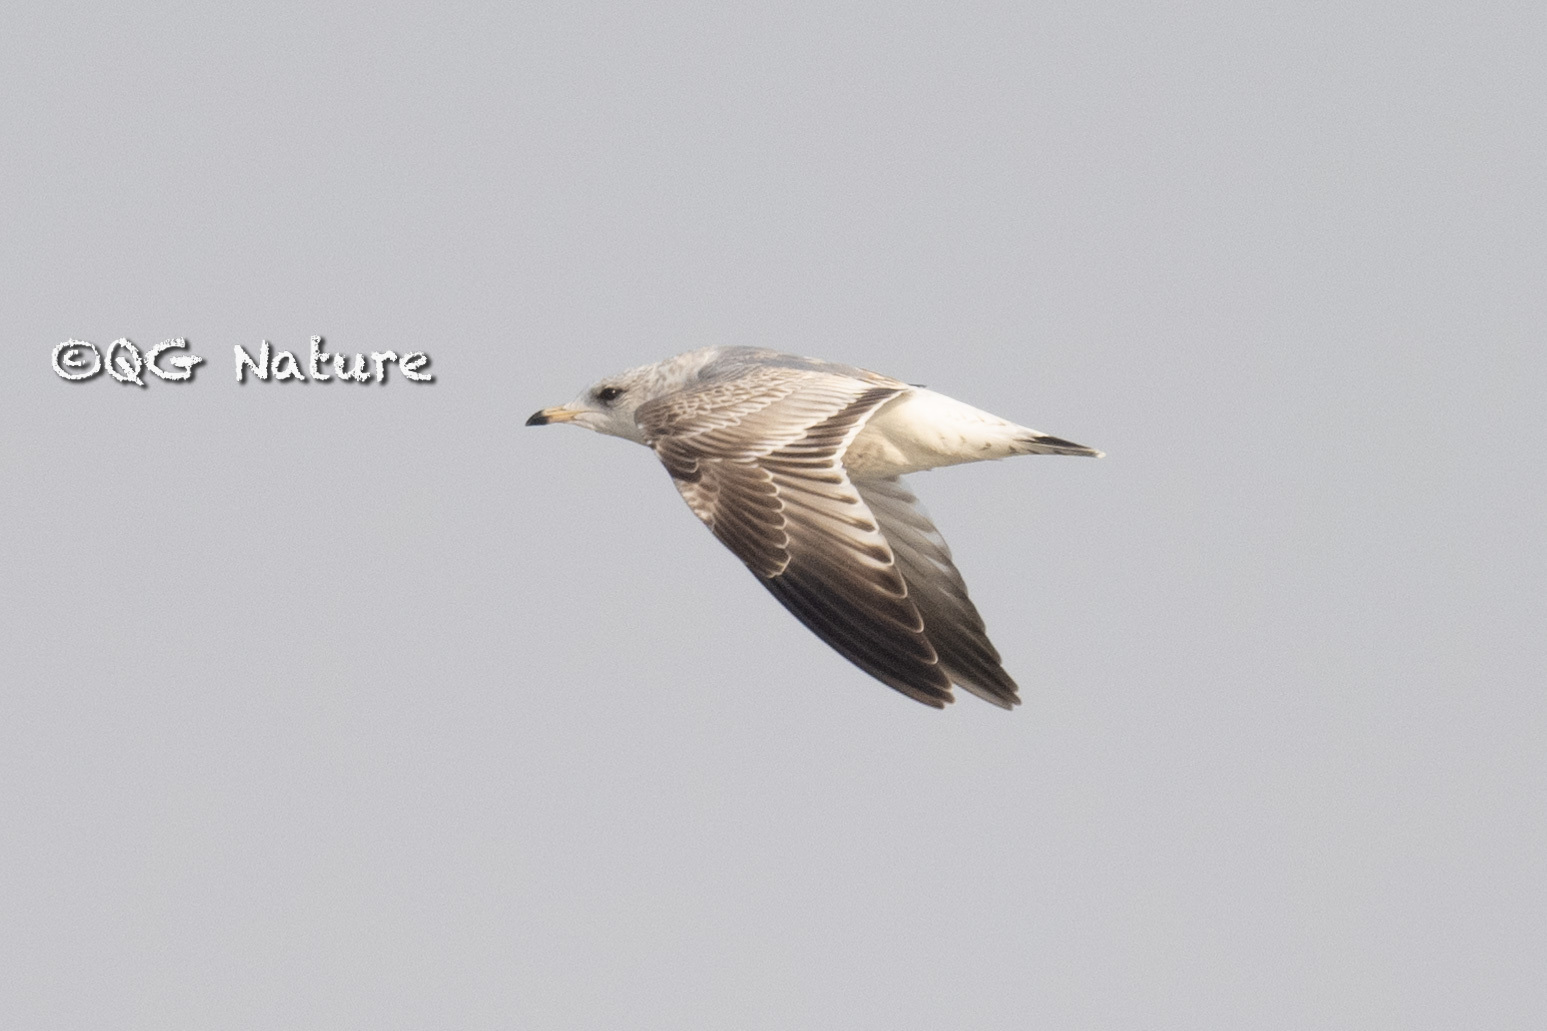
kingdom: Animalia
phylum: Chordata
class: Aves
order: Charadriiformes
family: Laridae
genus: Larus
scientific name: Larus canus
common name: Mew gull
